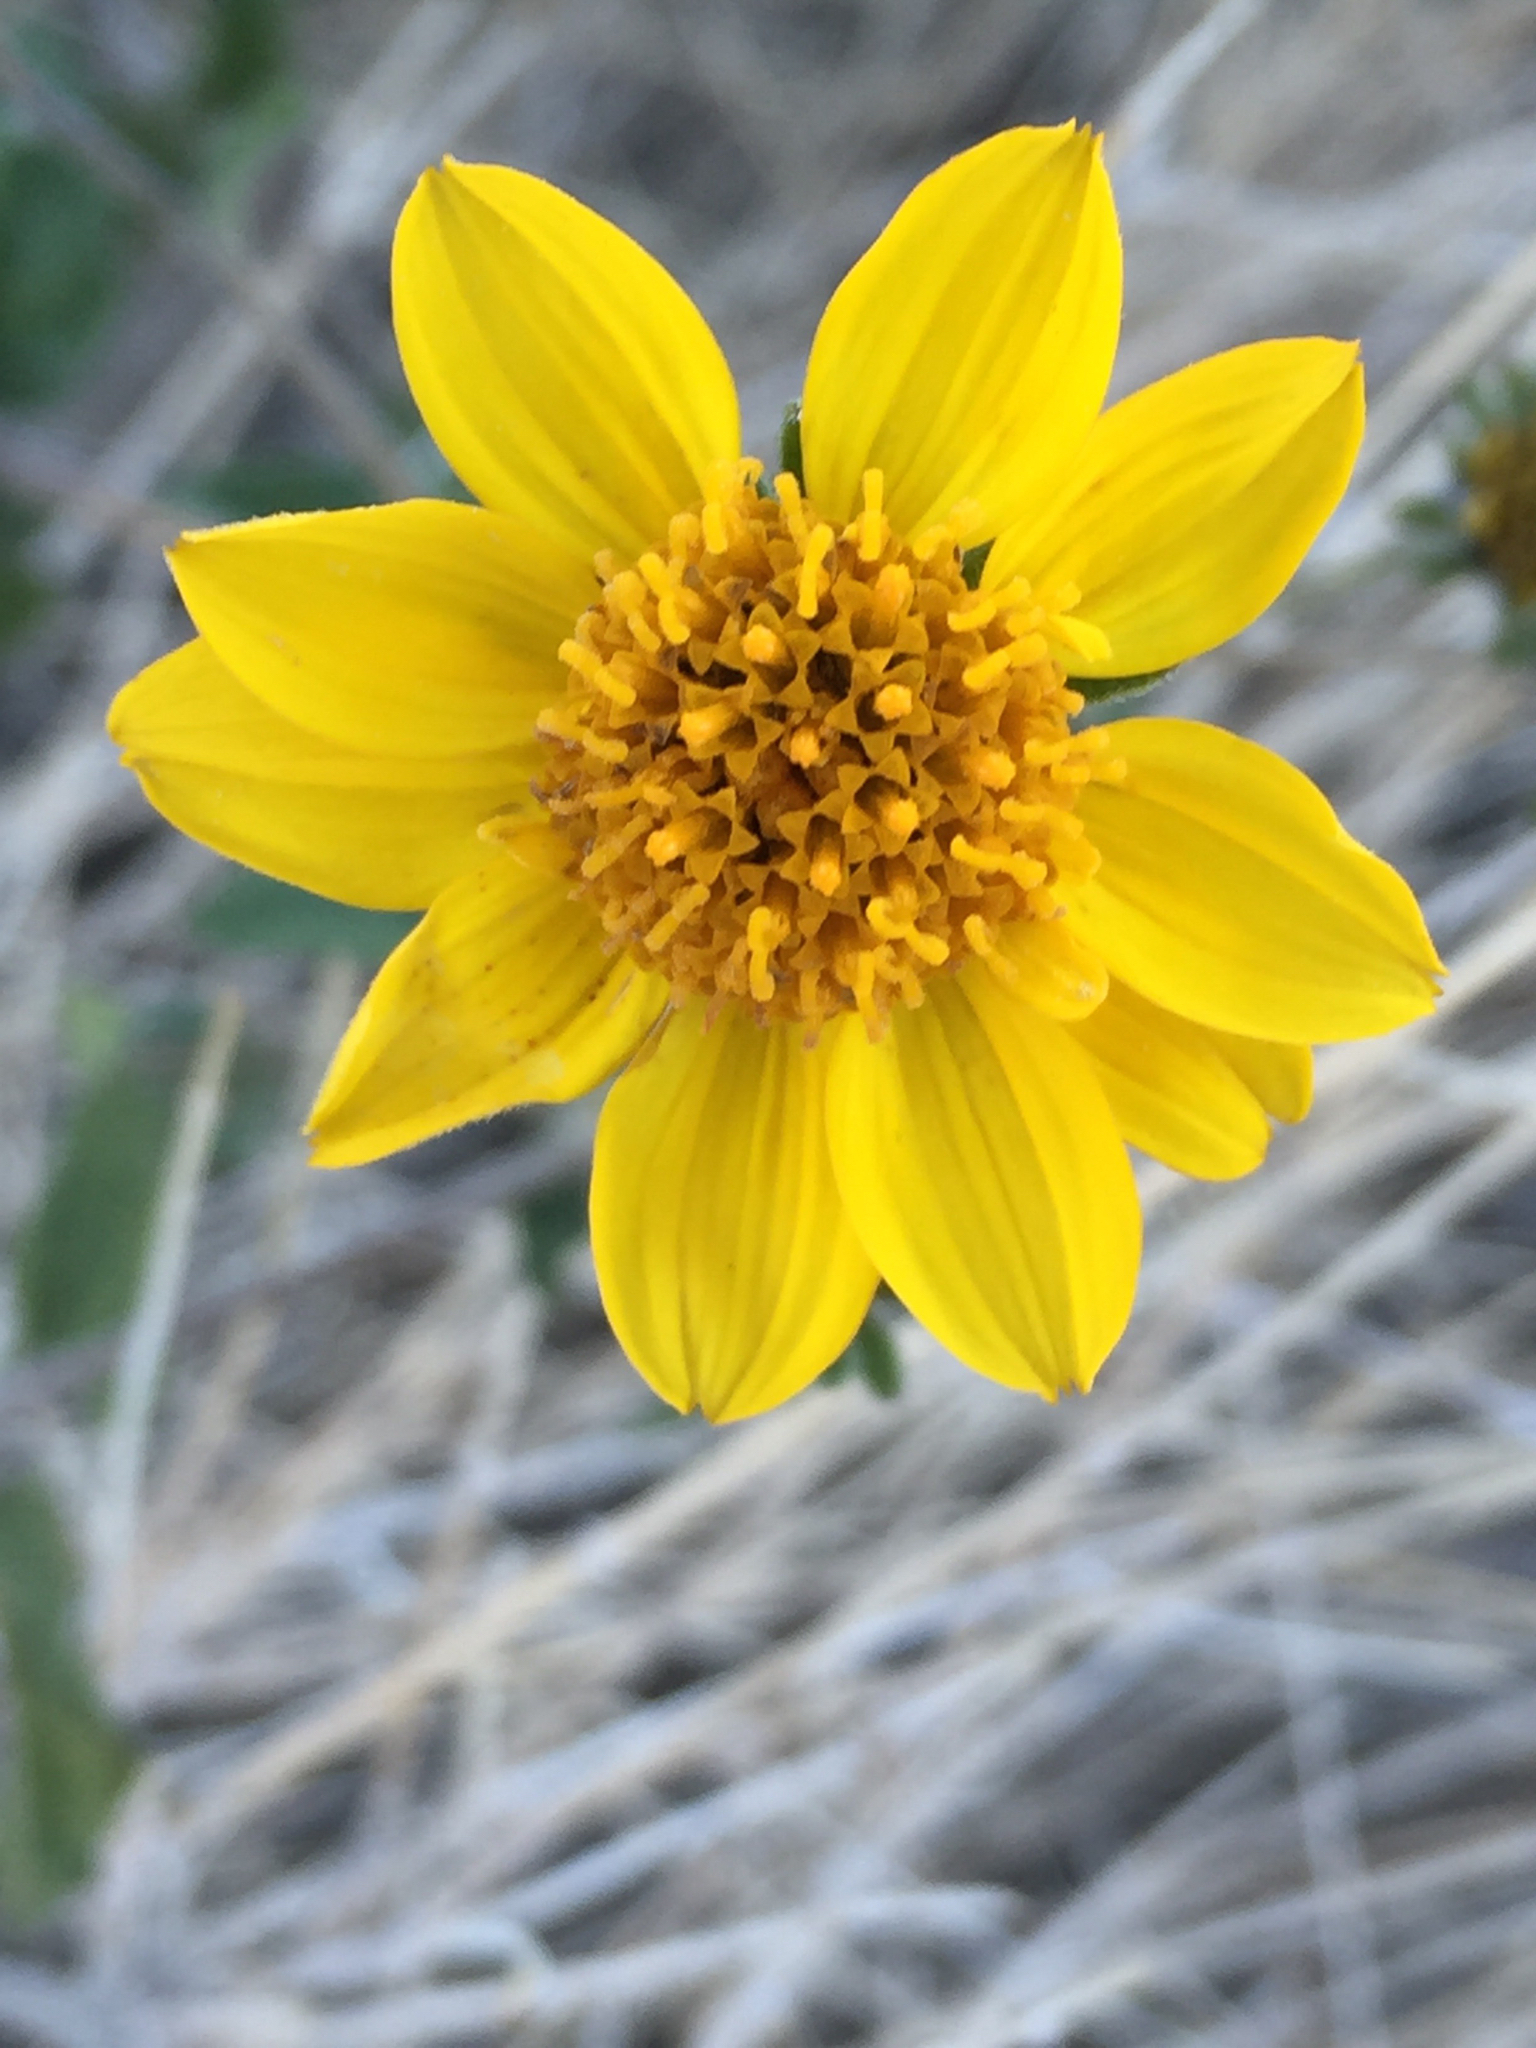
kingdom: Plantae
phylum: Tracheophyta
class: Magnoliopsida
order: Asterales
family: Asteraceae
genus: Bahiopsis
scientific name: Bahiopsis parishii
